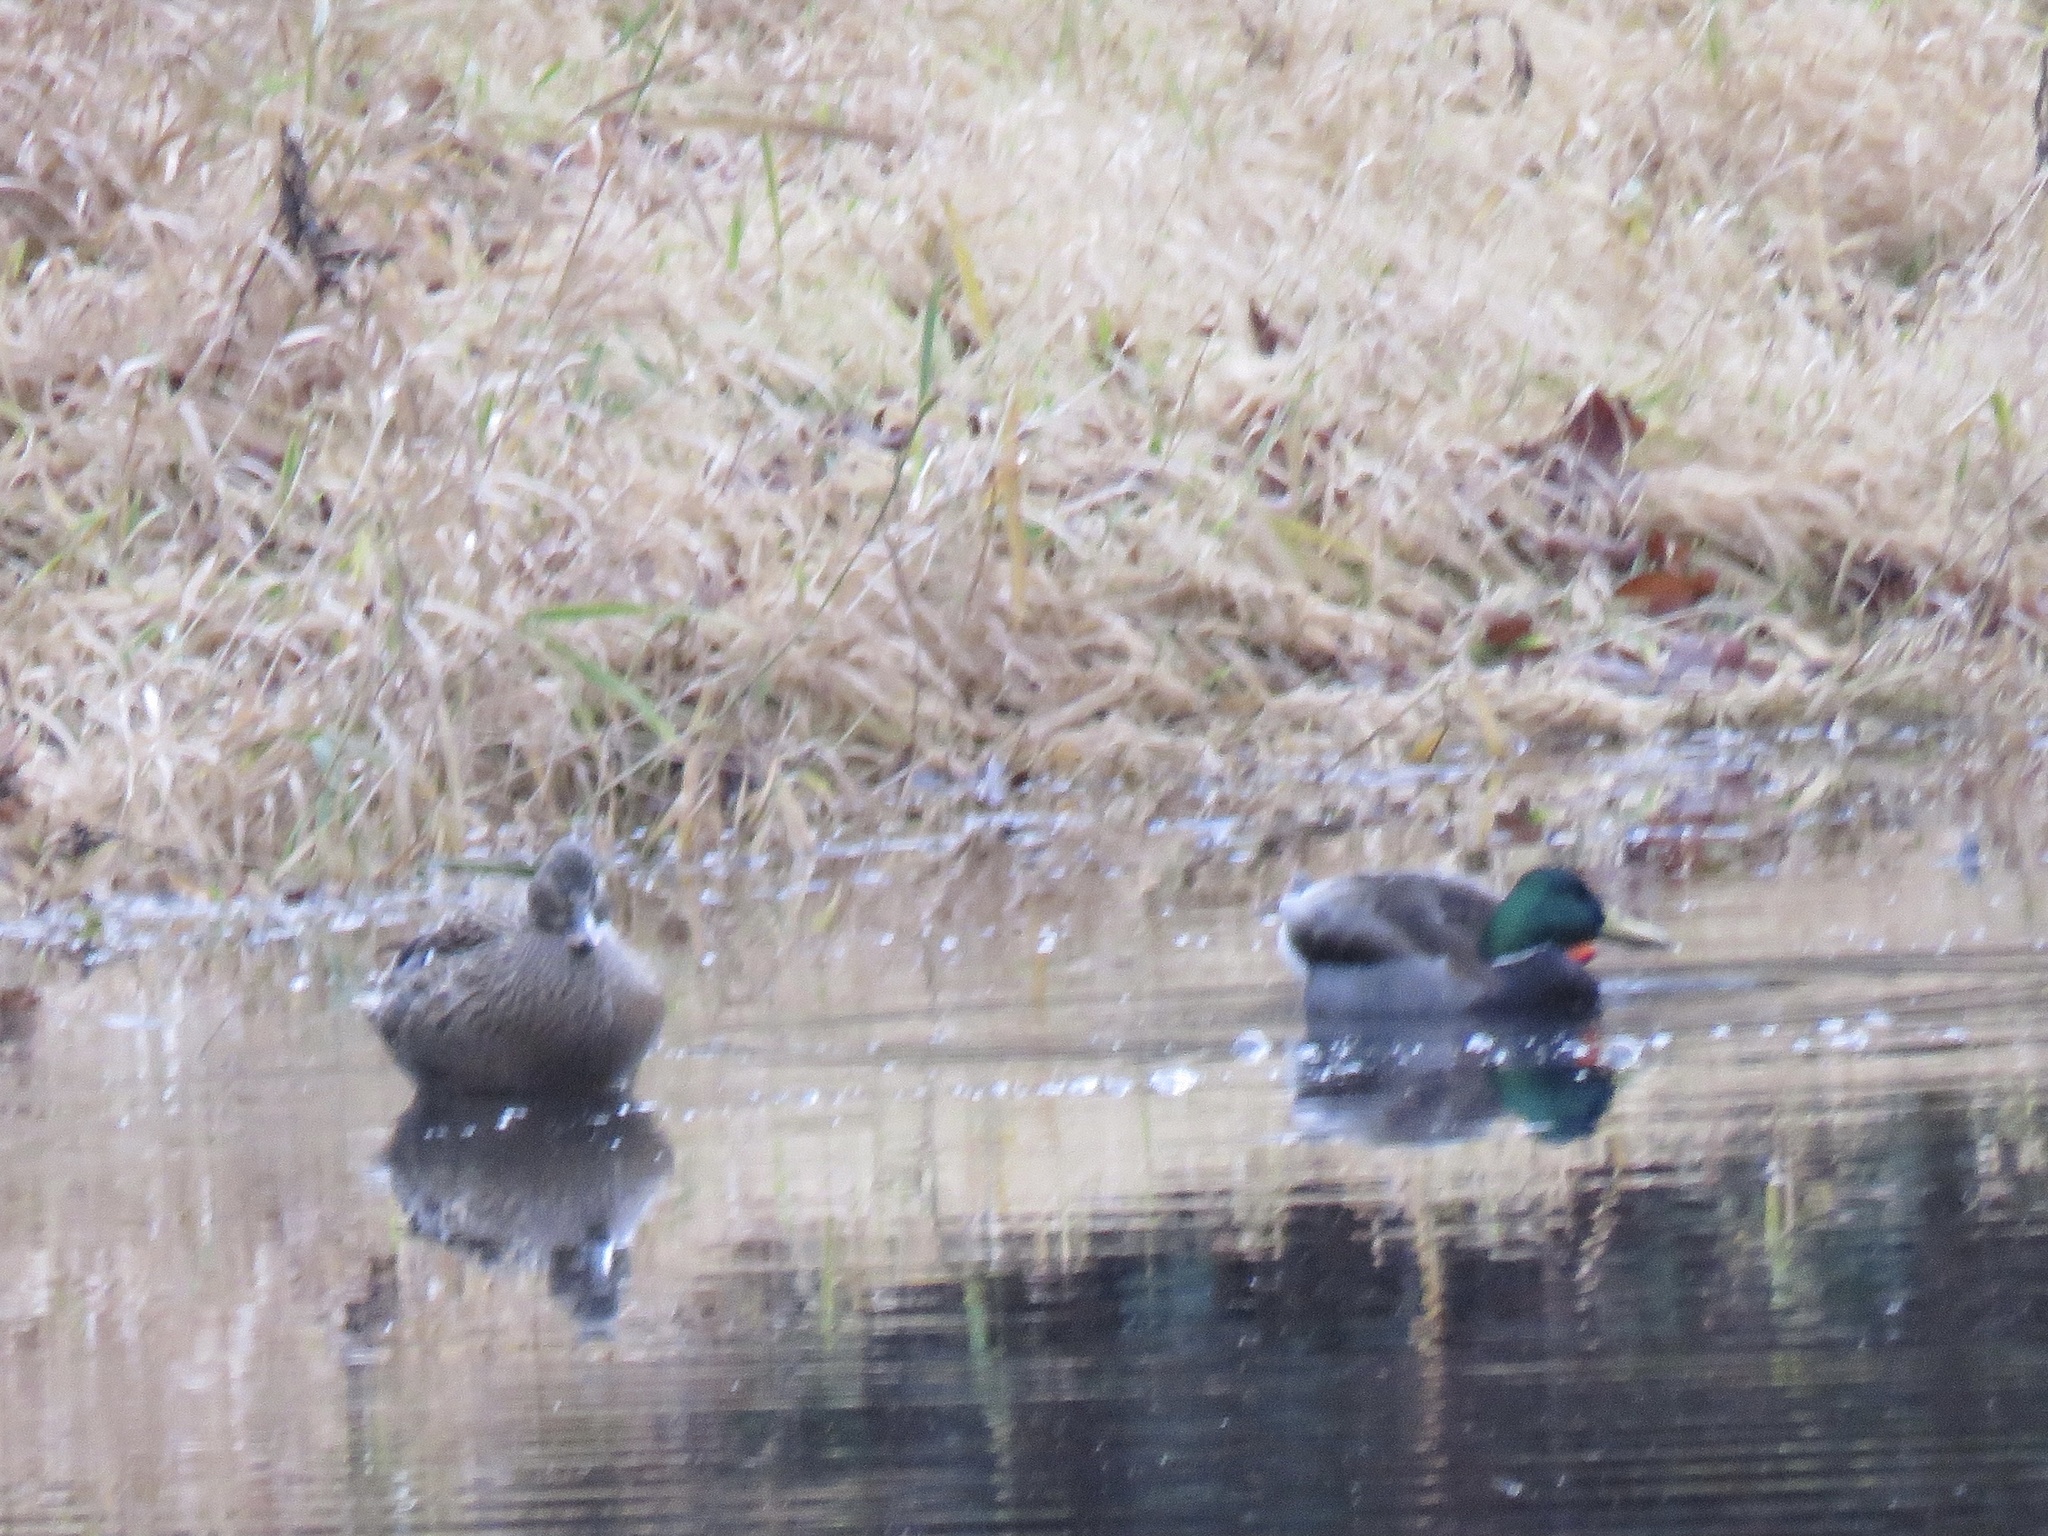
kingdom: Animalia
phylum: Chordata
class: Aves
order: Anseriformes
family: Anatidae
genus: Anas
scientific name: Anas platyrhynchos
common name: Mallard
